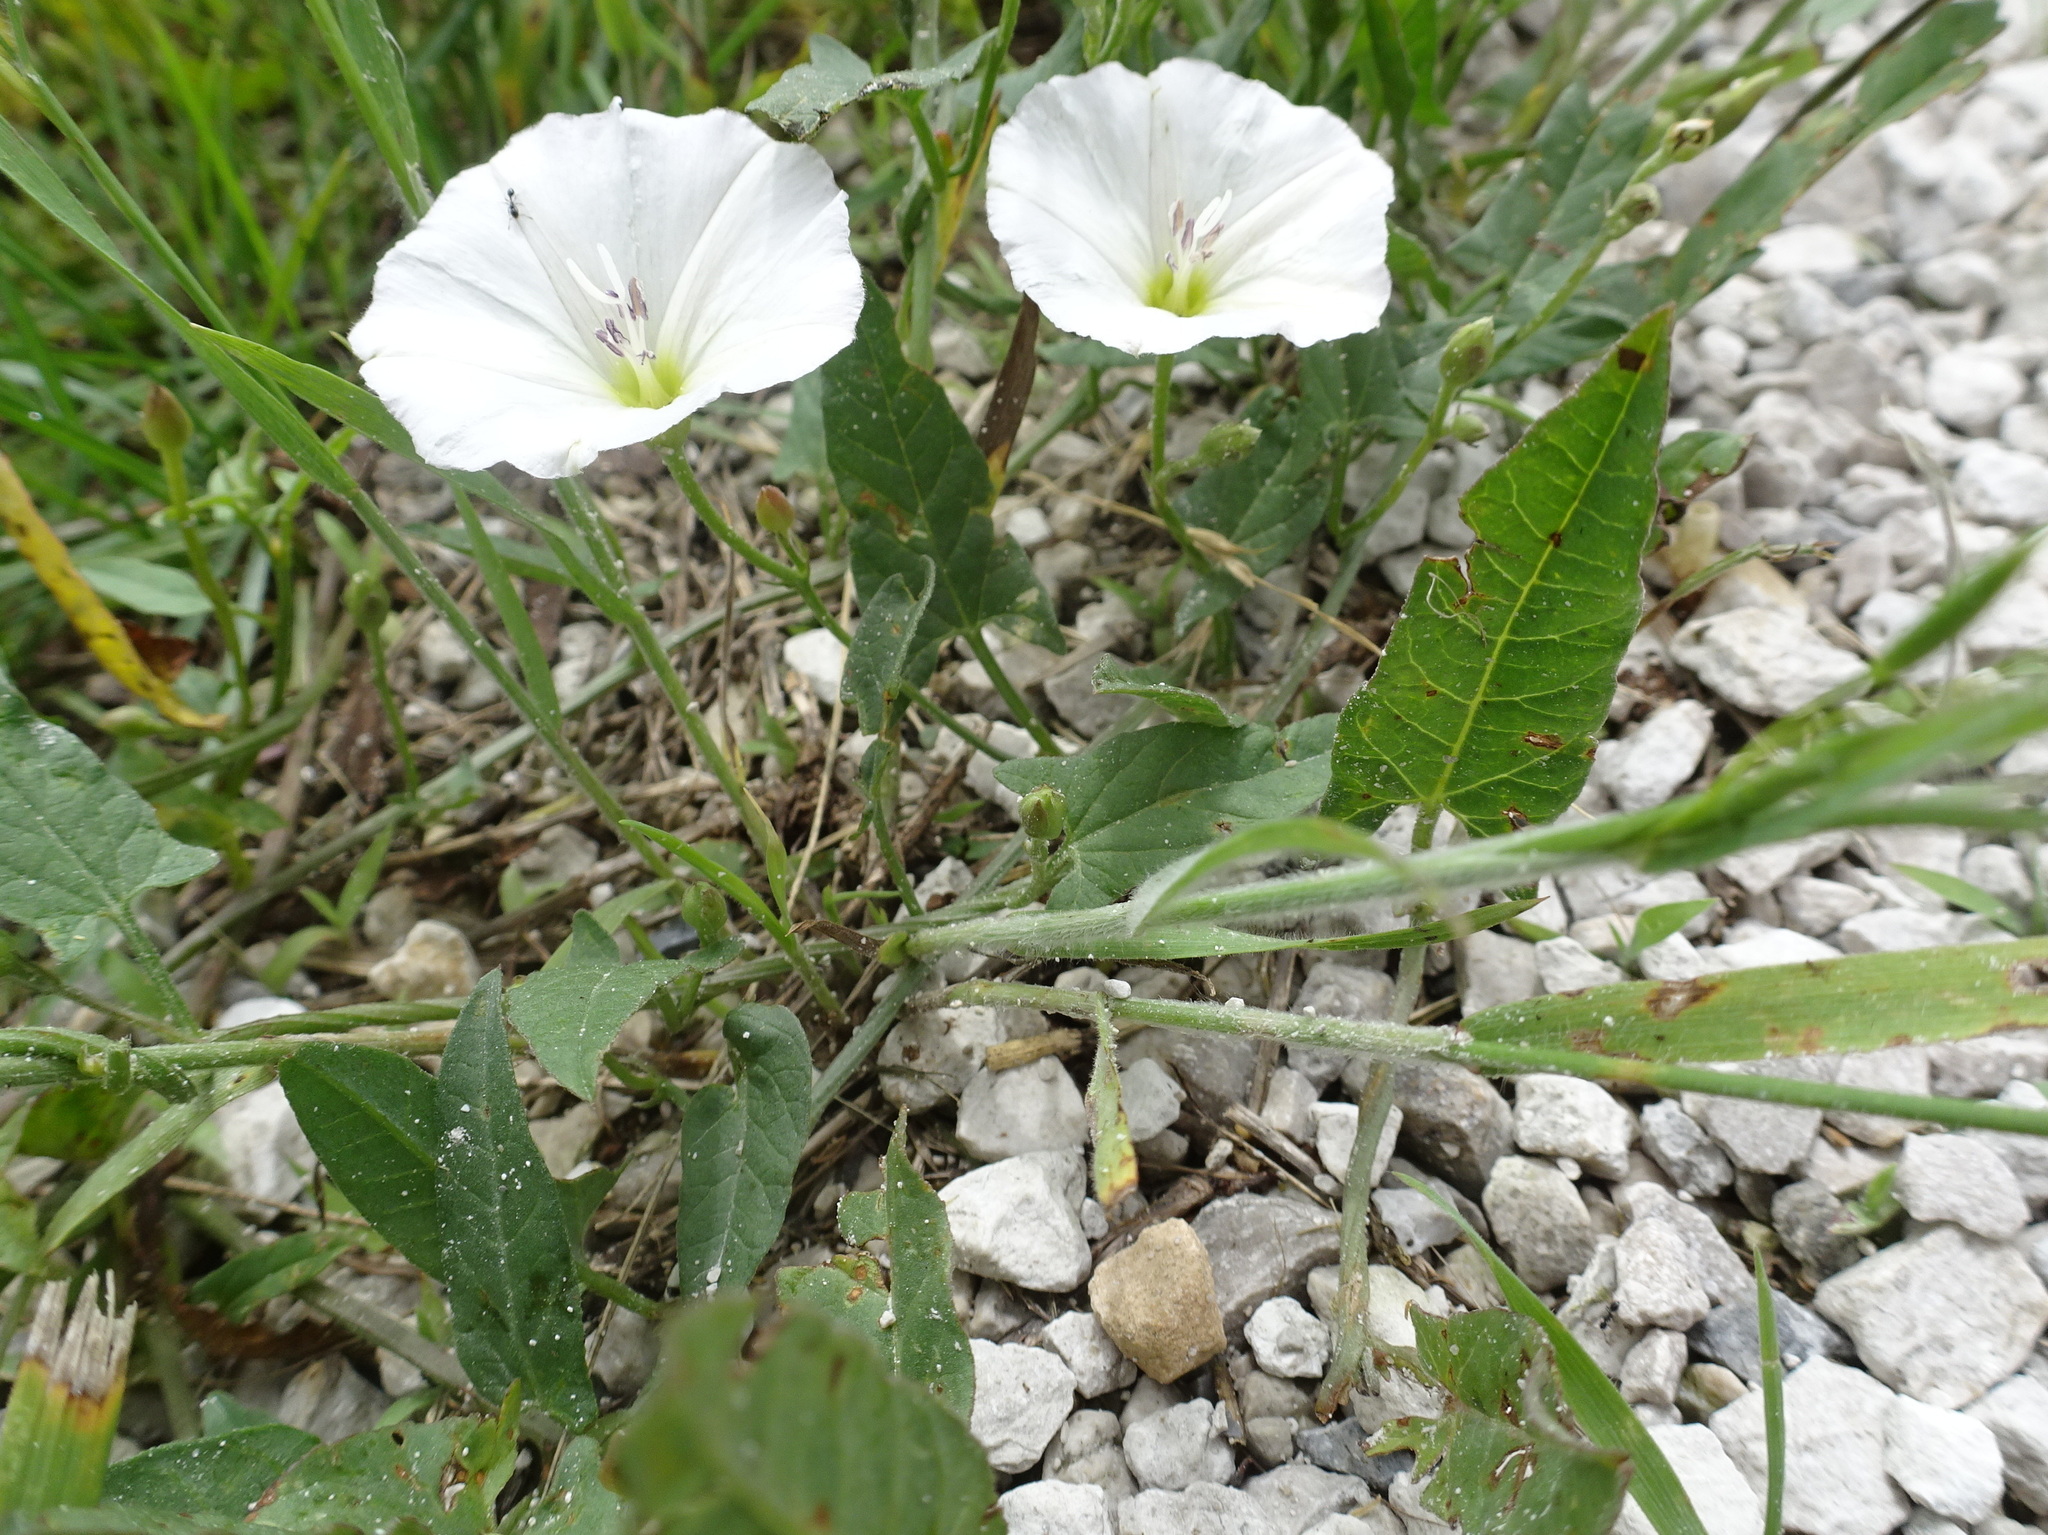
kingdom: Plantae
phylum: Tracheophyta
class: Magnoliopsida
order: Solanales
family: Convolvulaceae
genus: Convolvulus
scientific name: Convolvulus arvensis
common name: Field bindweed
